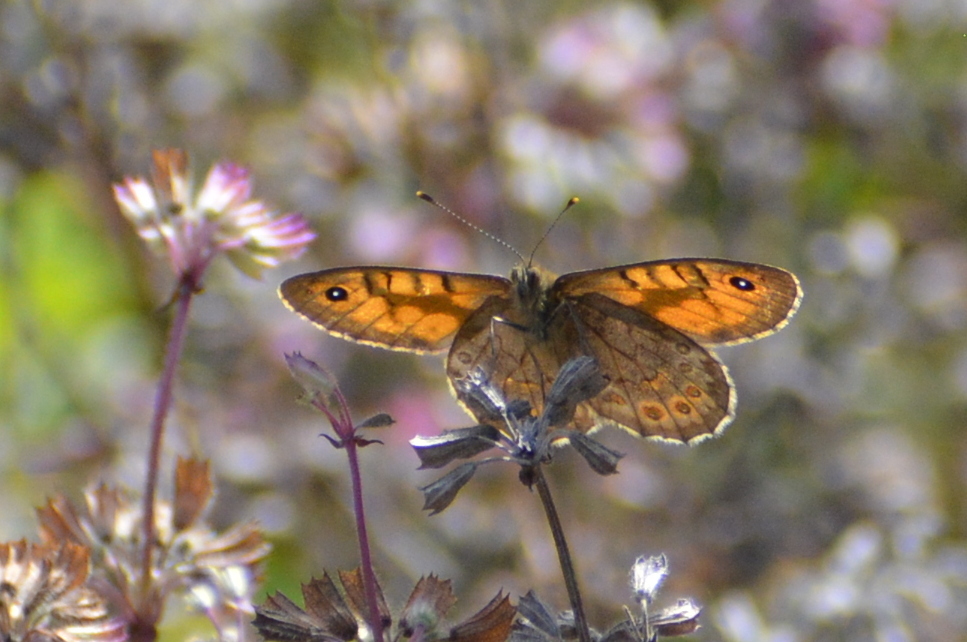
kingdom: Animalia
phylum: Arthropoda
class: Insecta
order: Lepidoptera
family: Nymphalidae
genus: Pararge
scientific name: Pararge Lasiommata megera
